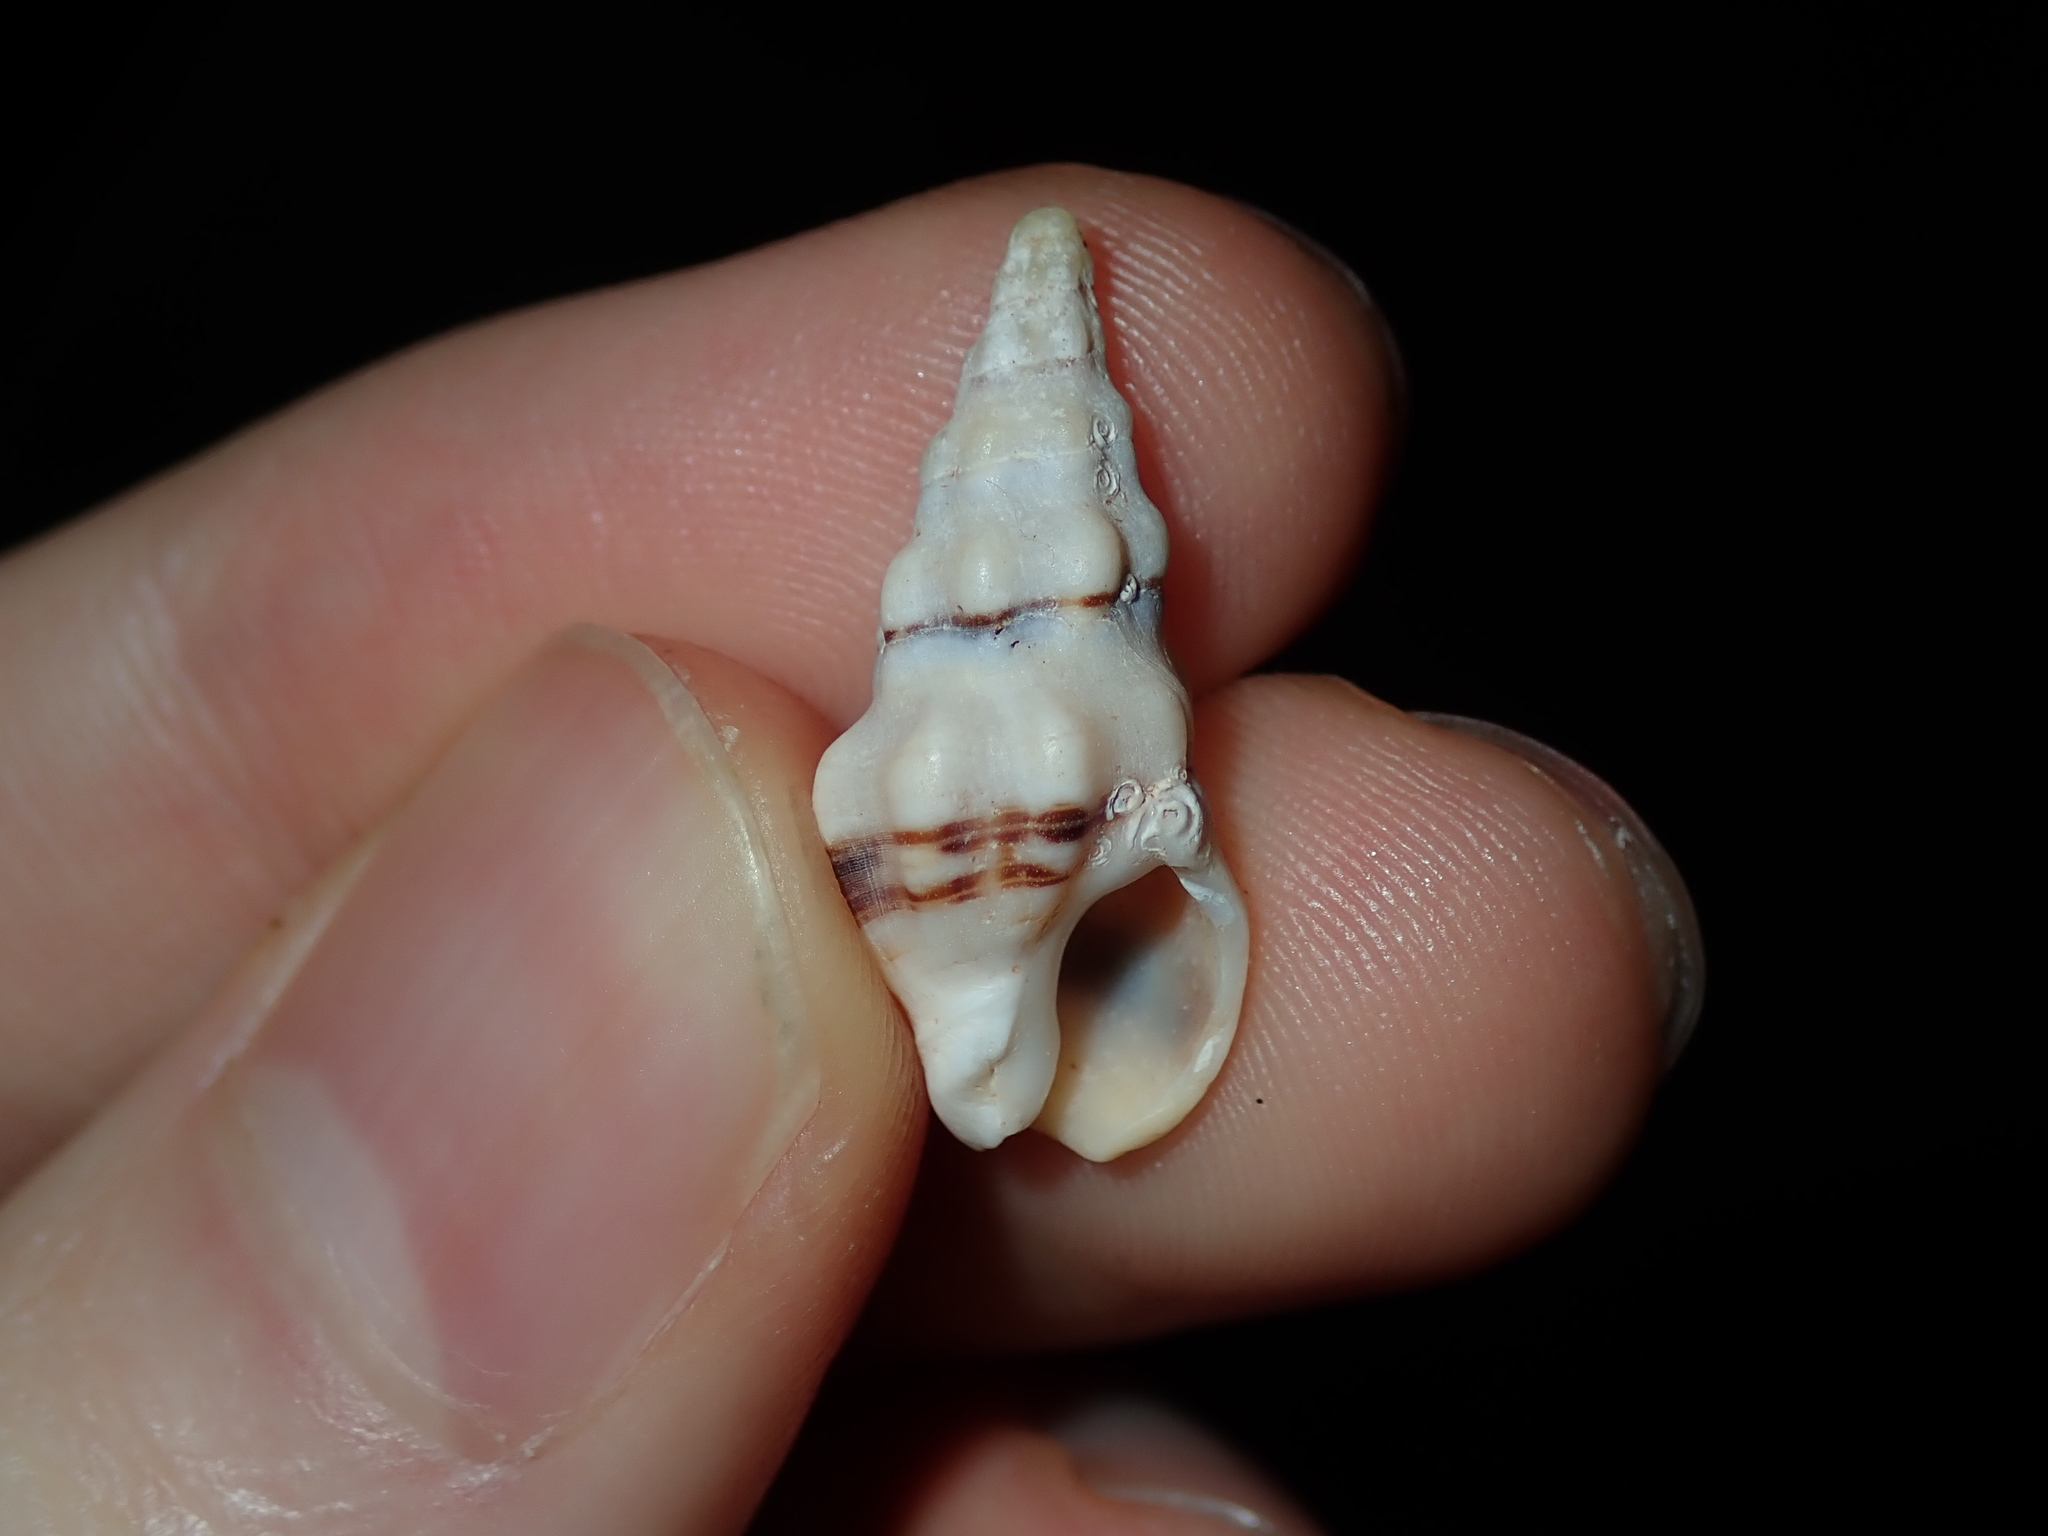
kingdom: Animalia
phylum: Mollusca
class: Gastropoda
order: Neogastropoda
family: Cominellidae
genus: Cominella
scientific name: Cominella eburnea
